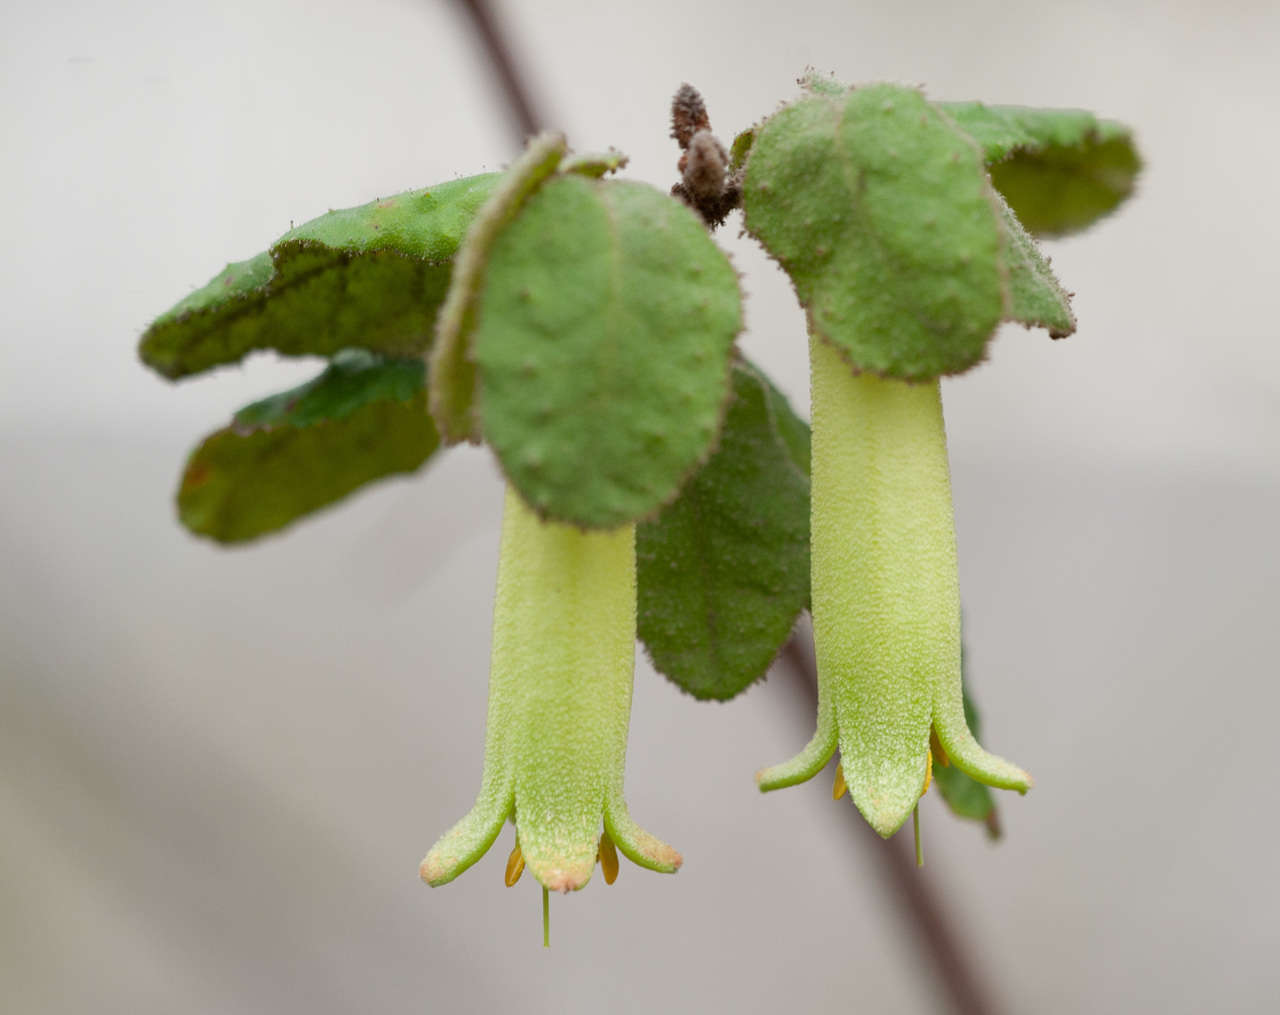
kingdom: Plantae
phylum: Tracheophyta
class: Magnoliopsida
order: Sapindales
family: Rutaceae
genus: Correa
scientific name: Correa reflexa
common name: Common correa
